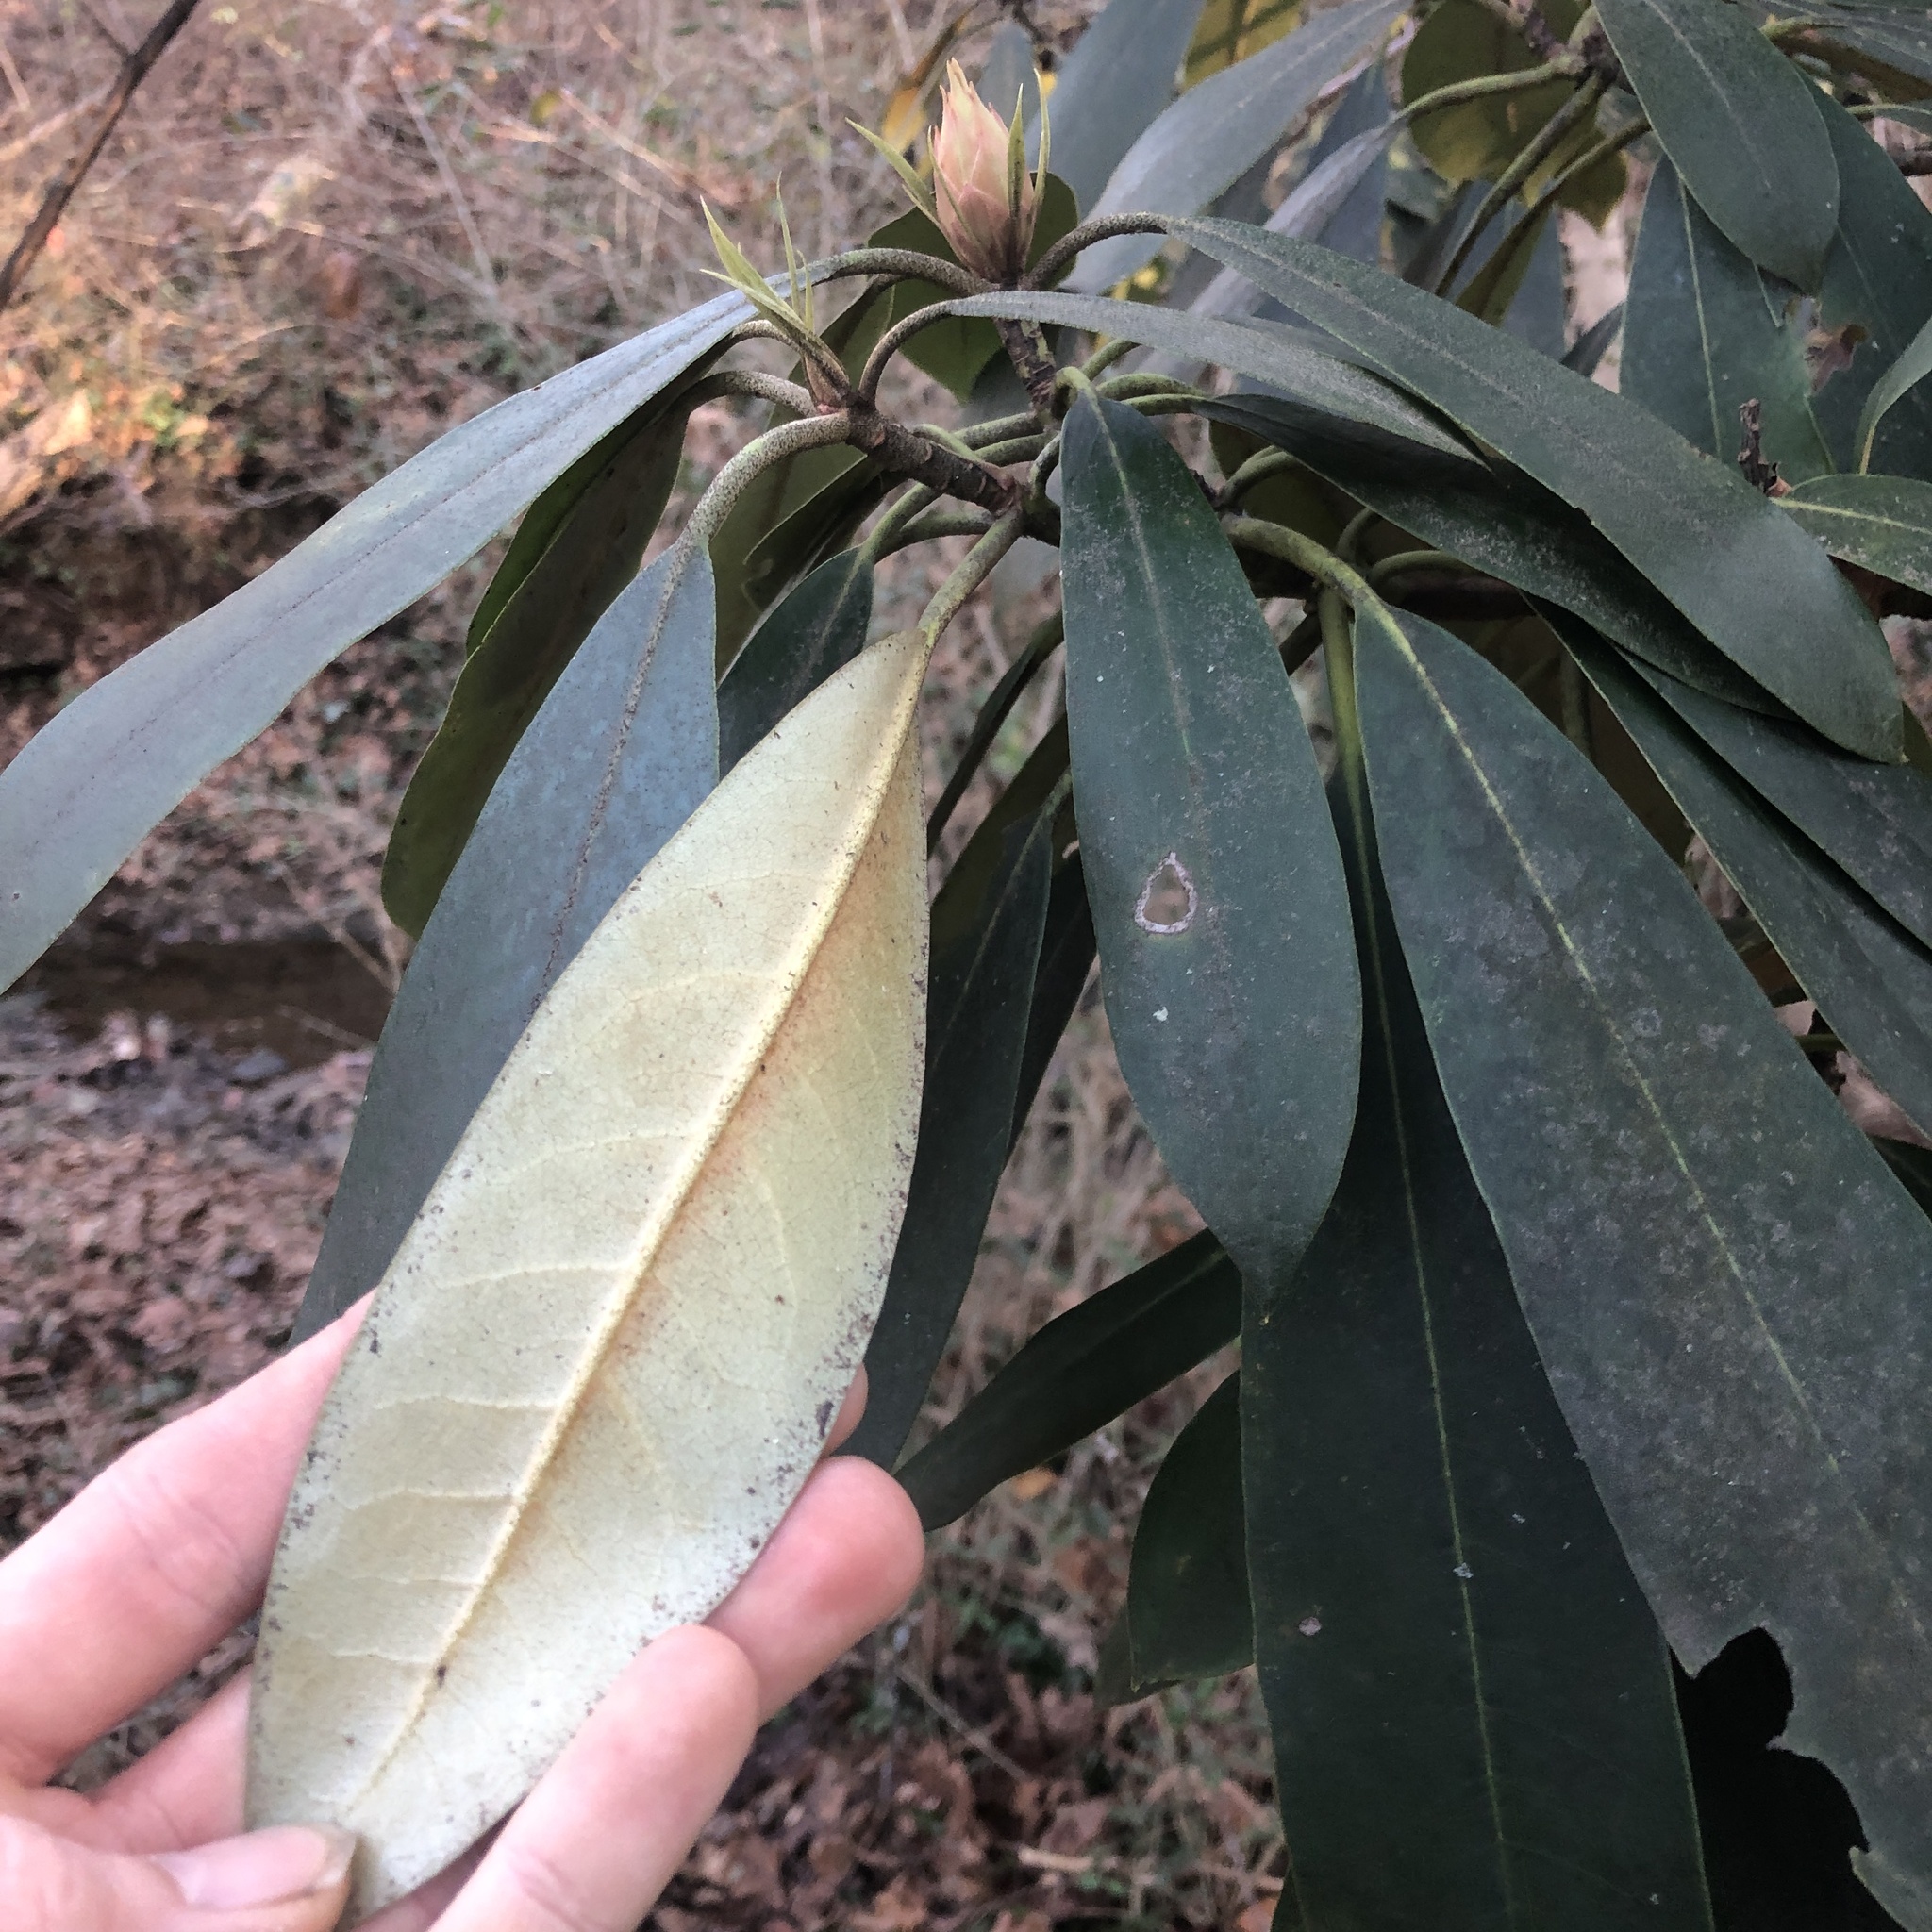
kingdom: Plantae
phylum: Tracheophyta
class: Magnoliopsida
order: Ericales
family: Ericaceae
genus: Rhododendron
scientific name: Rhododendron maximum
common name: Great rhododendron
